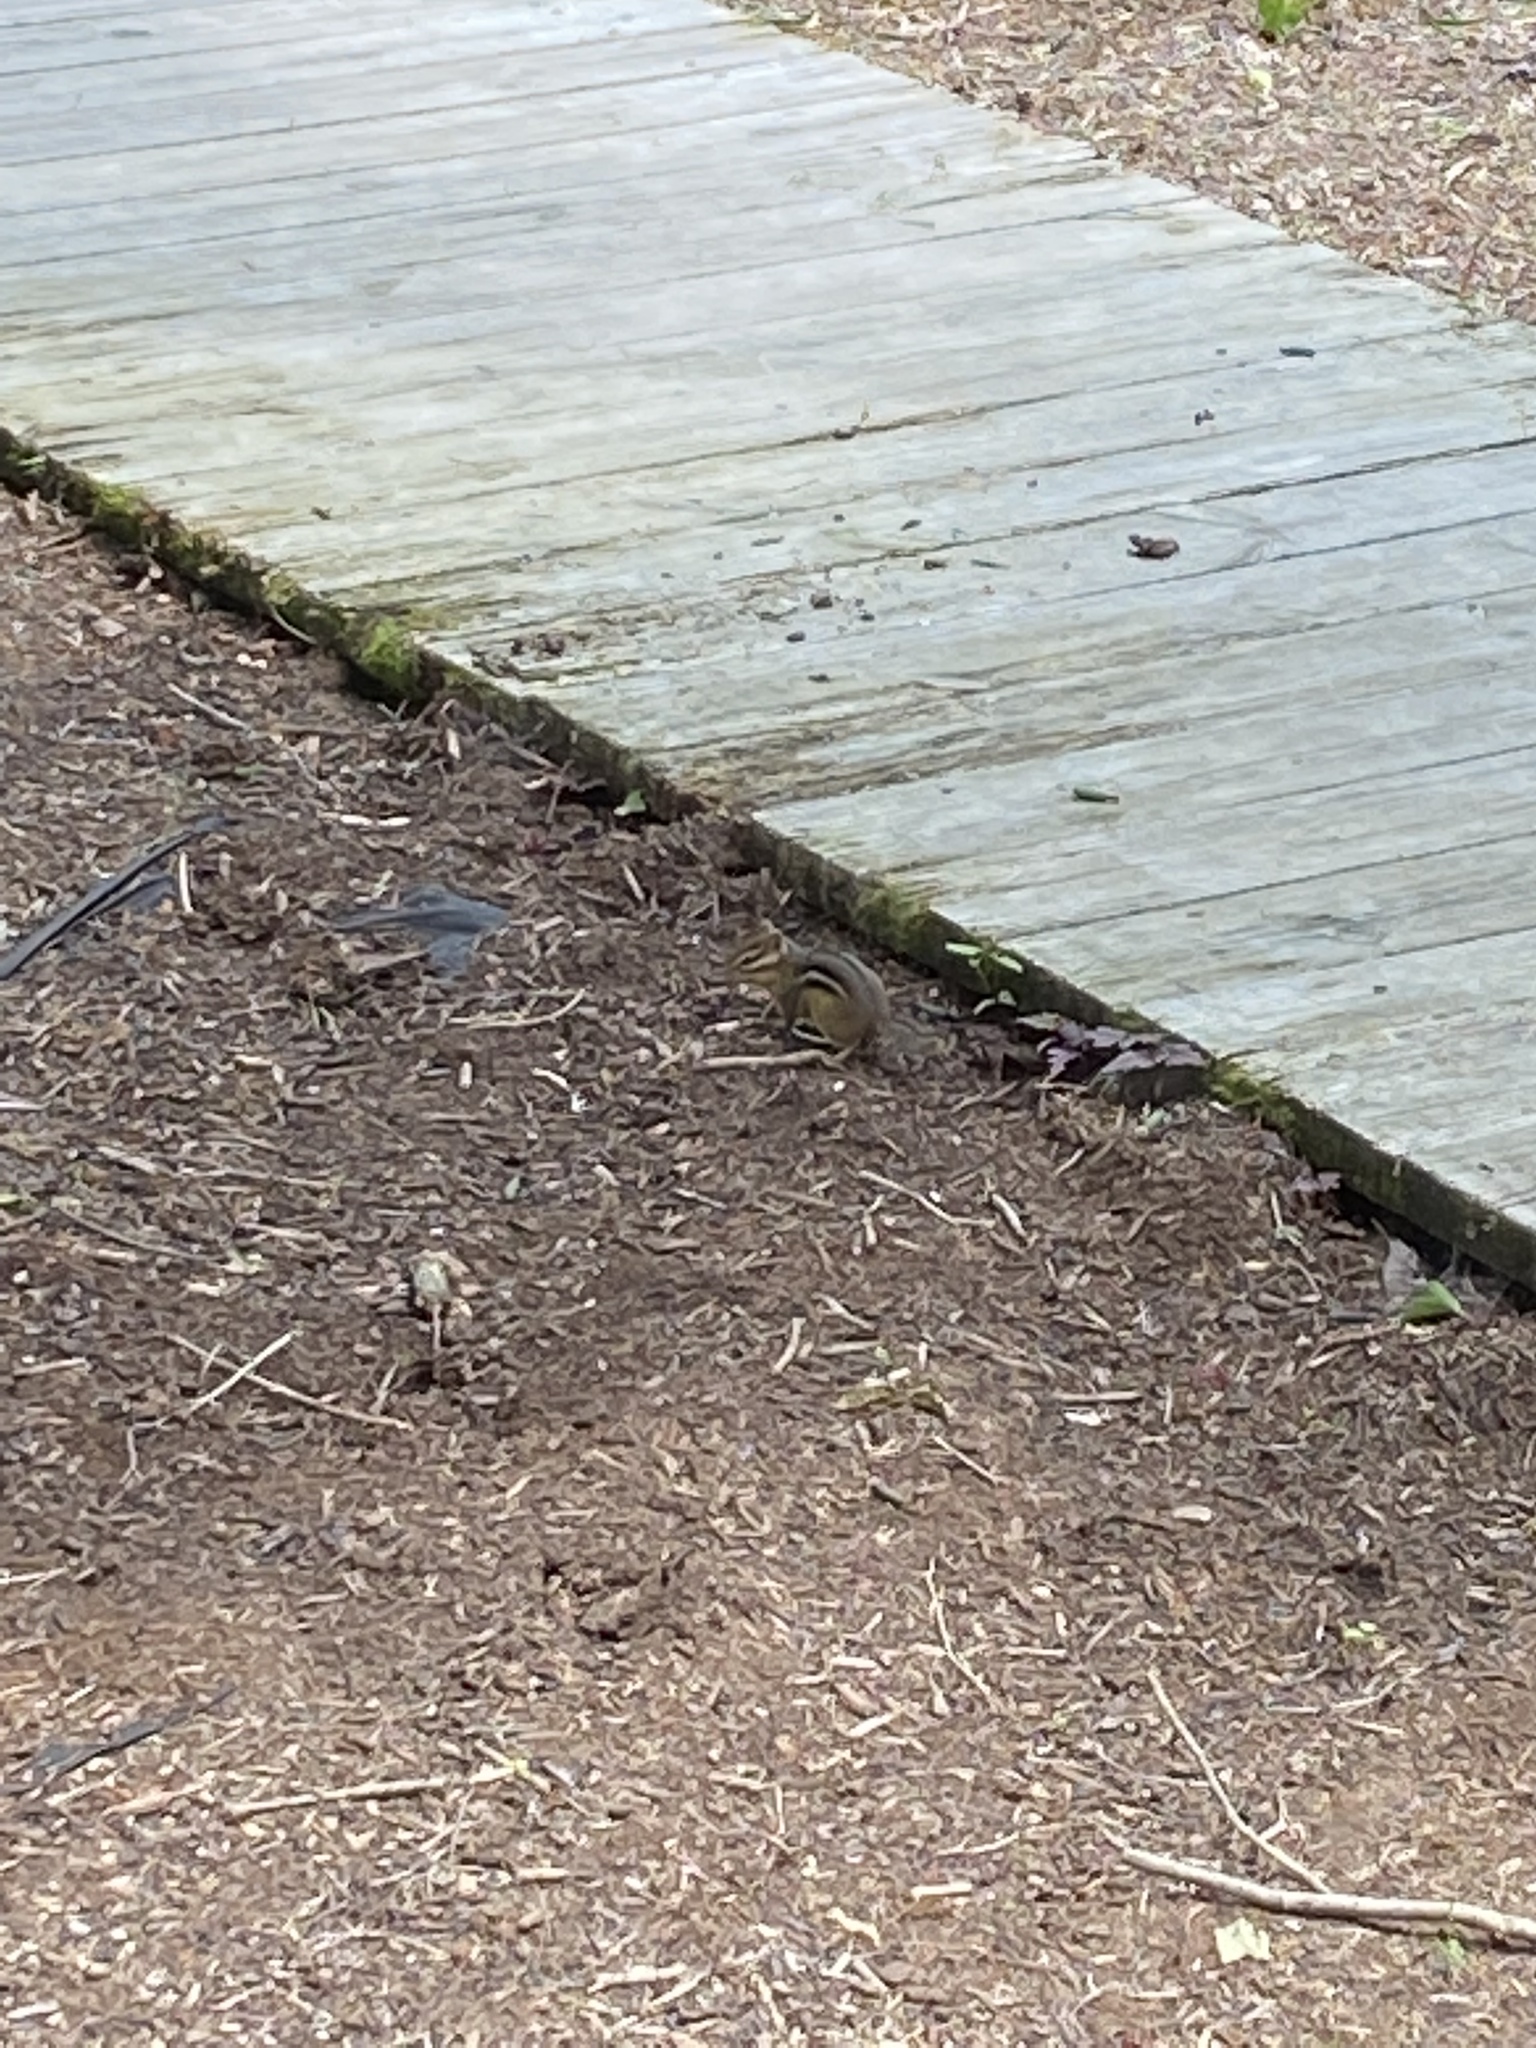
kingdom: Animalia
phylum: Chordata
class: Mammalia
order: Rodentia
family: Sciuridae
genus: Tamias
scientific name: Tamias striatus
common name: Eastern chipmunk
